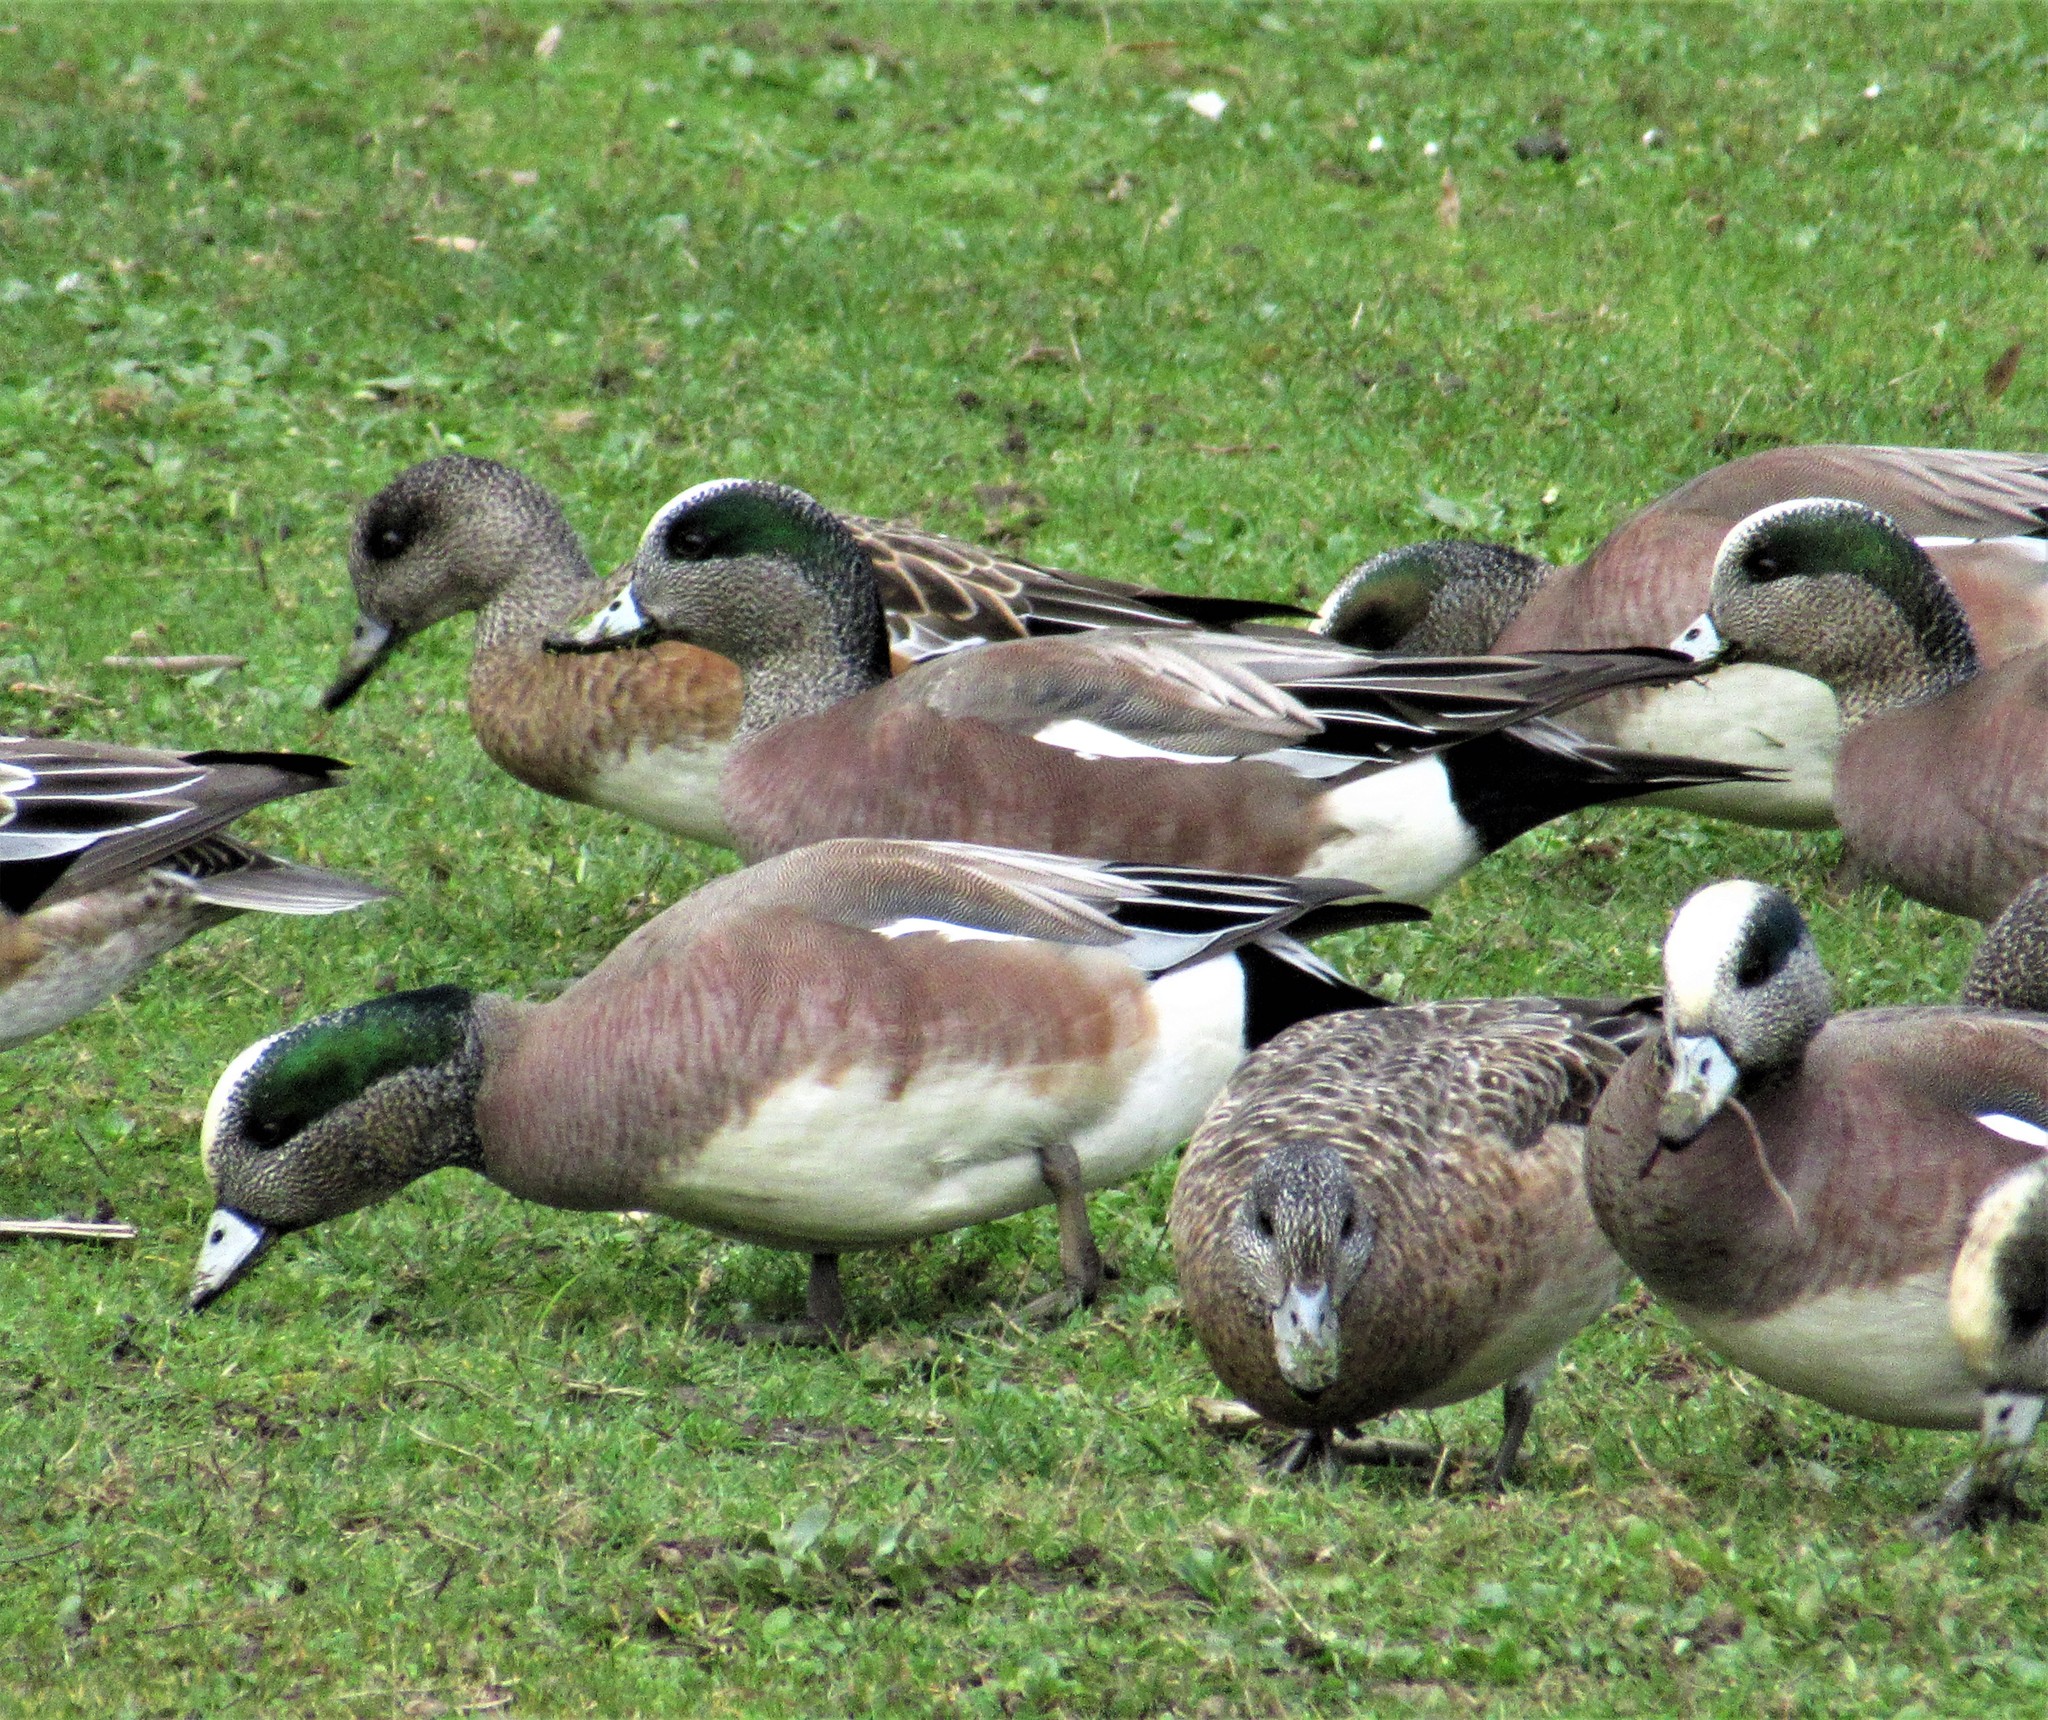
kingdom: Animalia
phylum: Chordata
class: Aves
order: Anseriformes
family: Anatidae
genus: Mareca
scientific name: Mareca americana
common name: American wigeon
